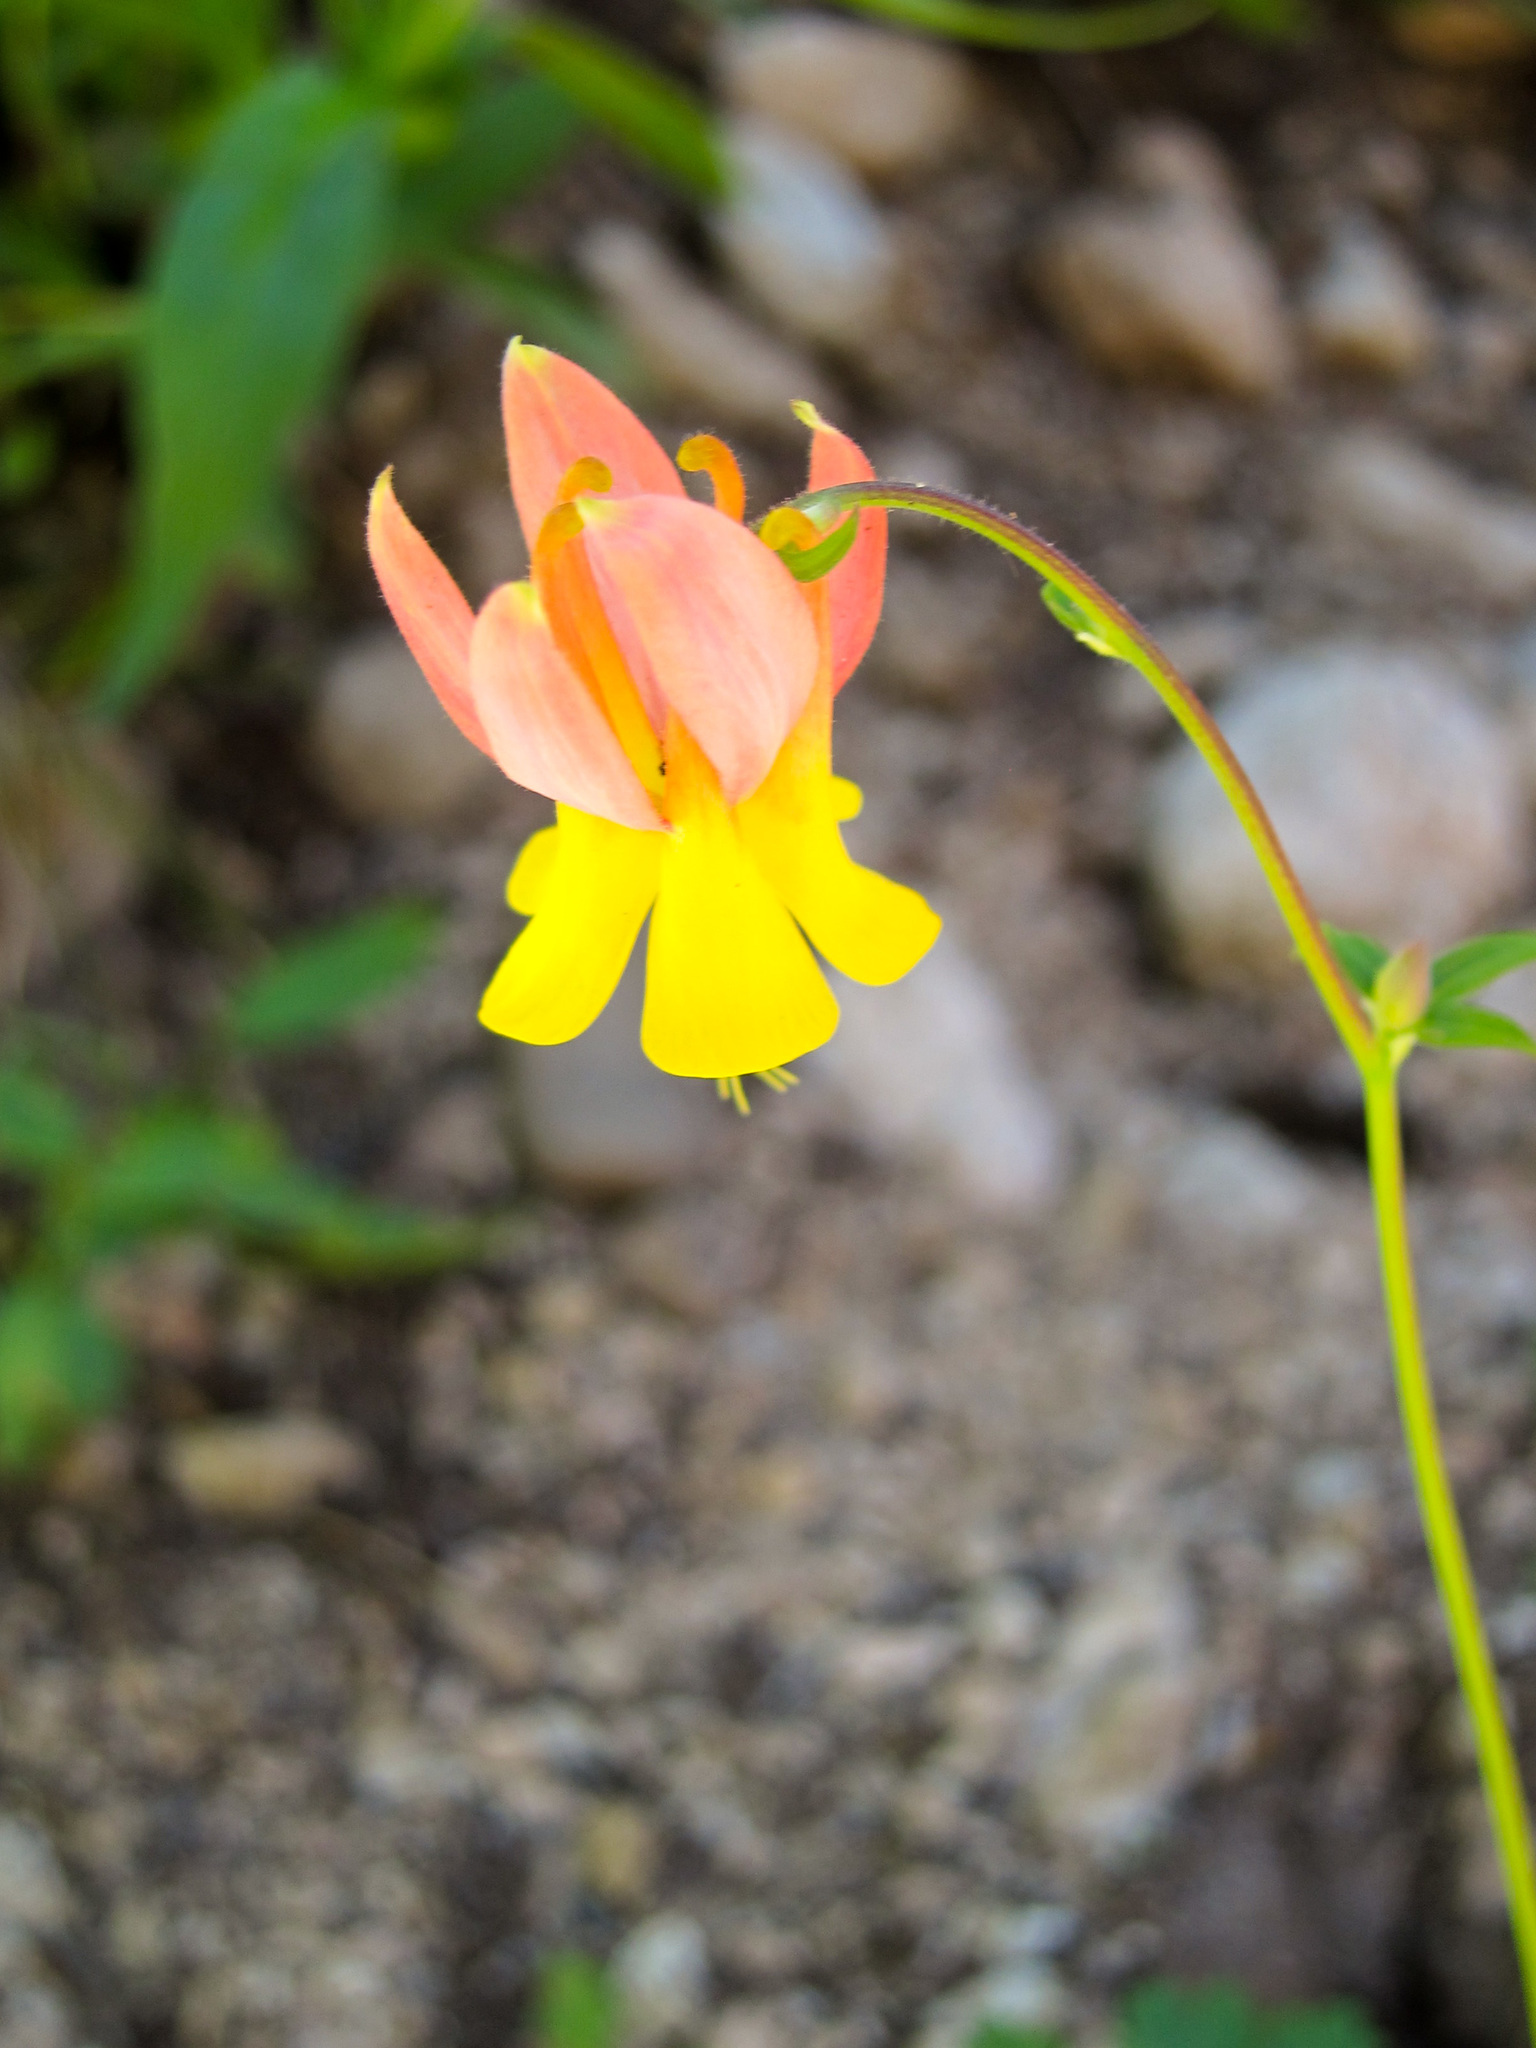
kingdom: Plantae
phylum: Tracheophyta
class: Magnoliopsida
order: Ranunculales
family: Ranunculaceae
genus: Aquilegia
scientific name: Aquilegia formosa
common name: Sitka columbine
